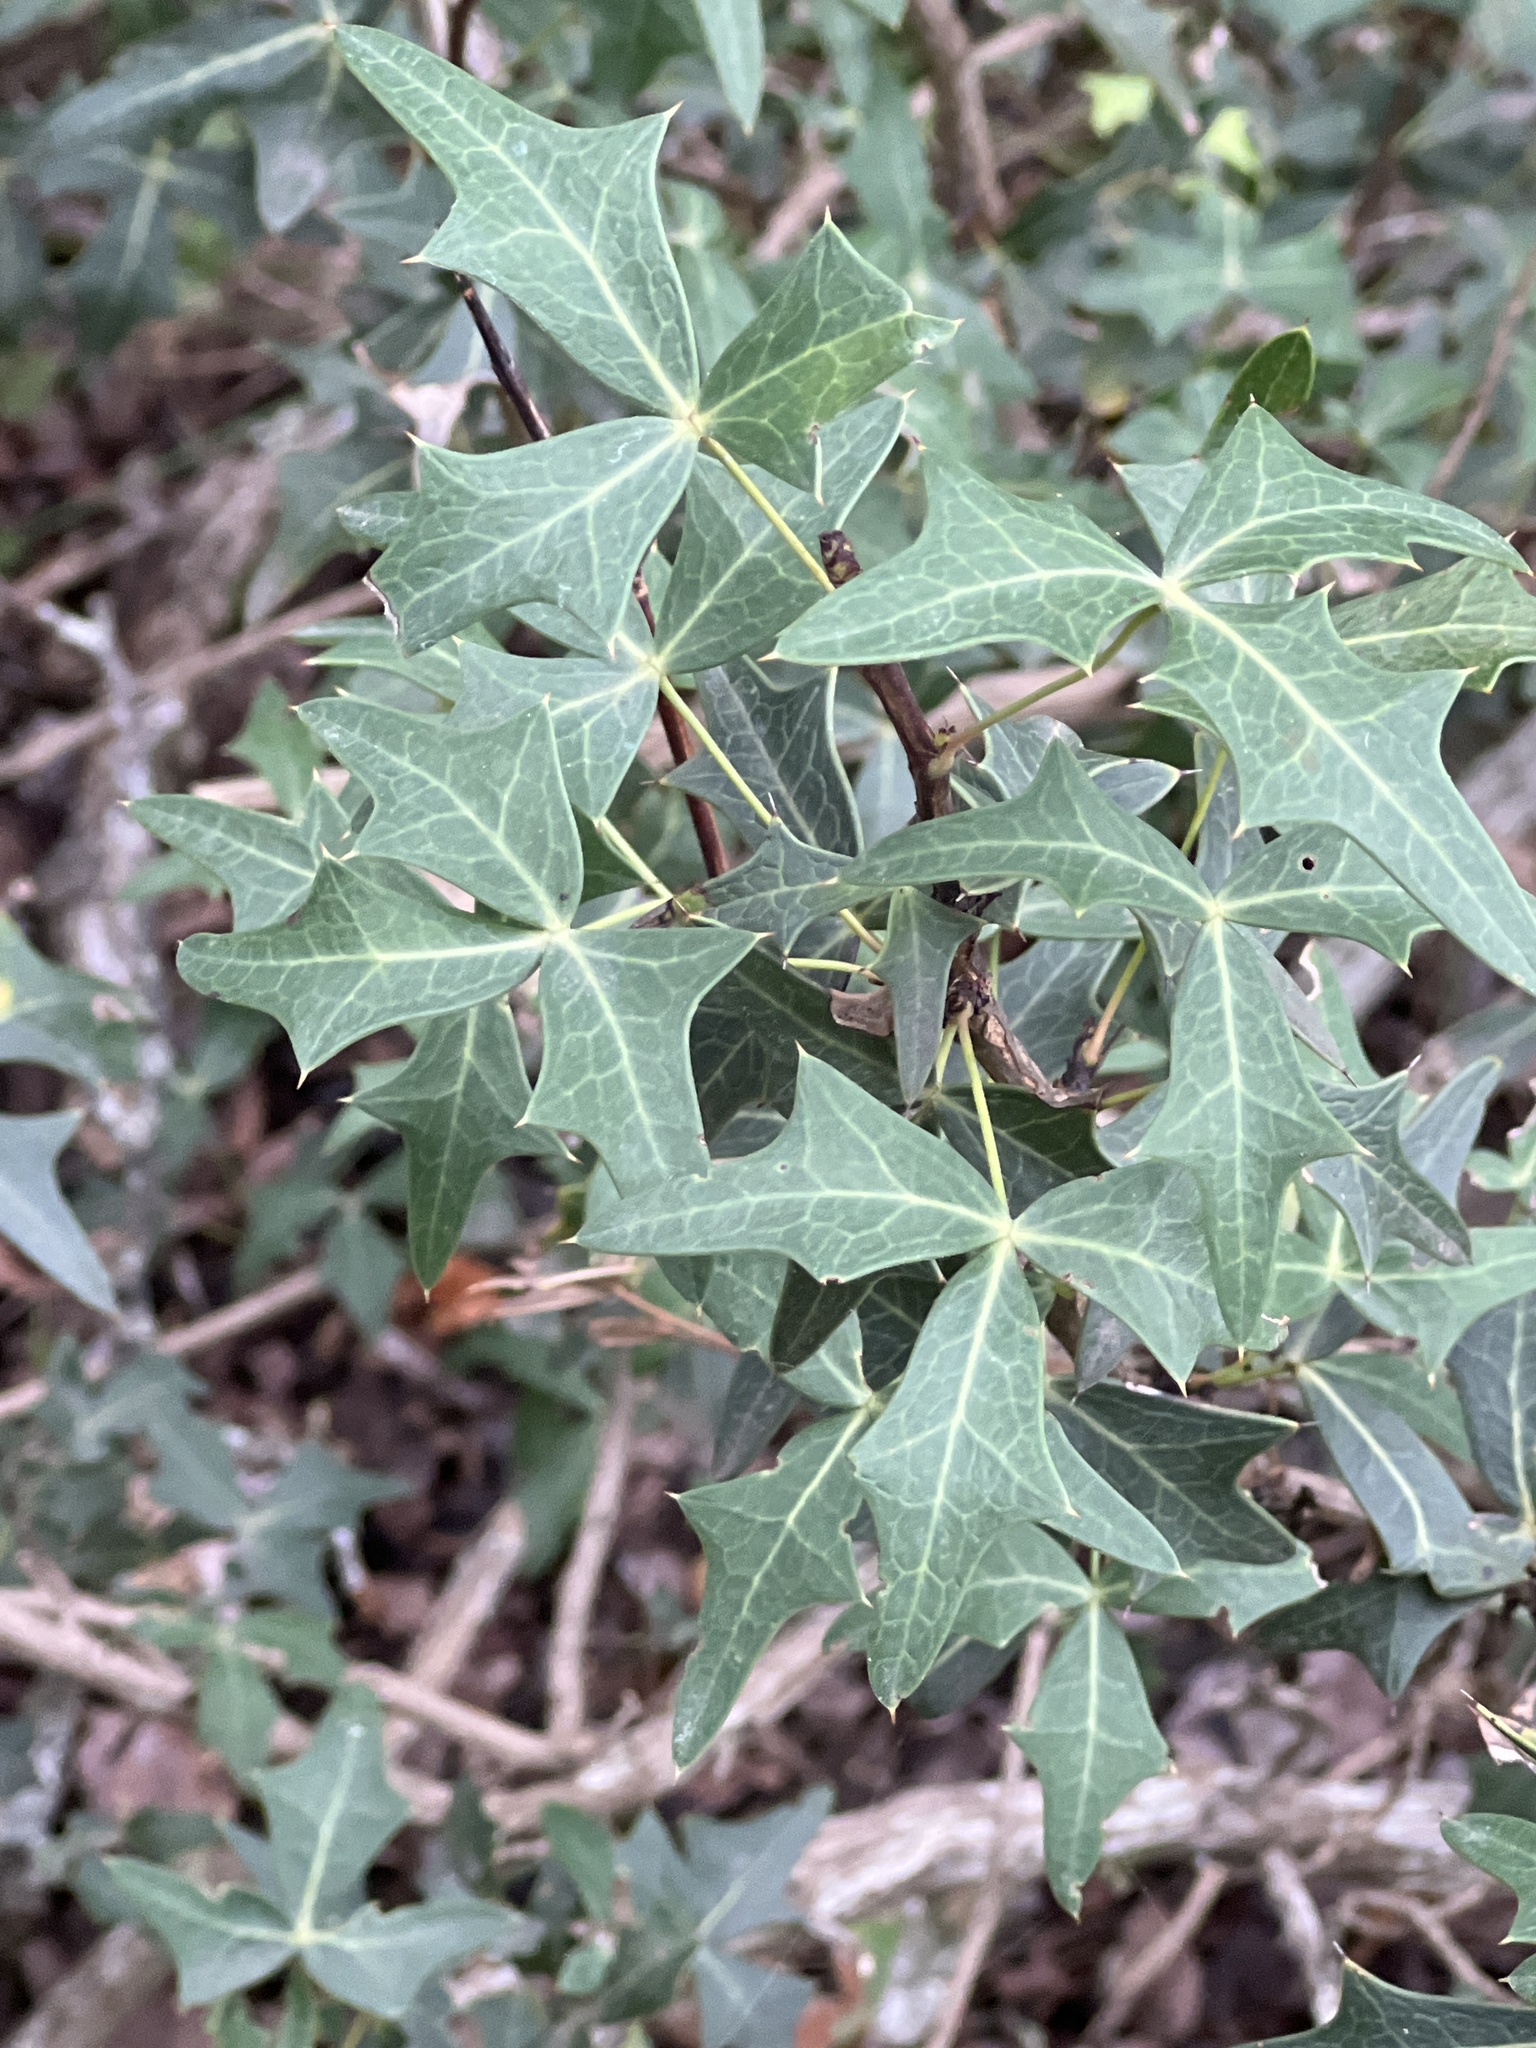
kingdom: Plantae
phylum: Tracheophyta
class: Magnoliopsida
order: Ranunculales
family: Berberidaceae
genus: Alloberberis
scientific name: Alloberberis trifoliolata
